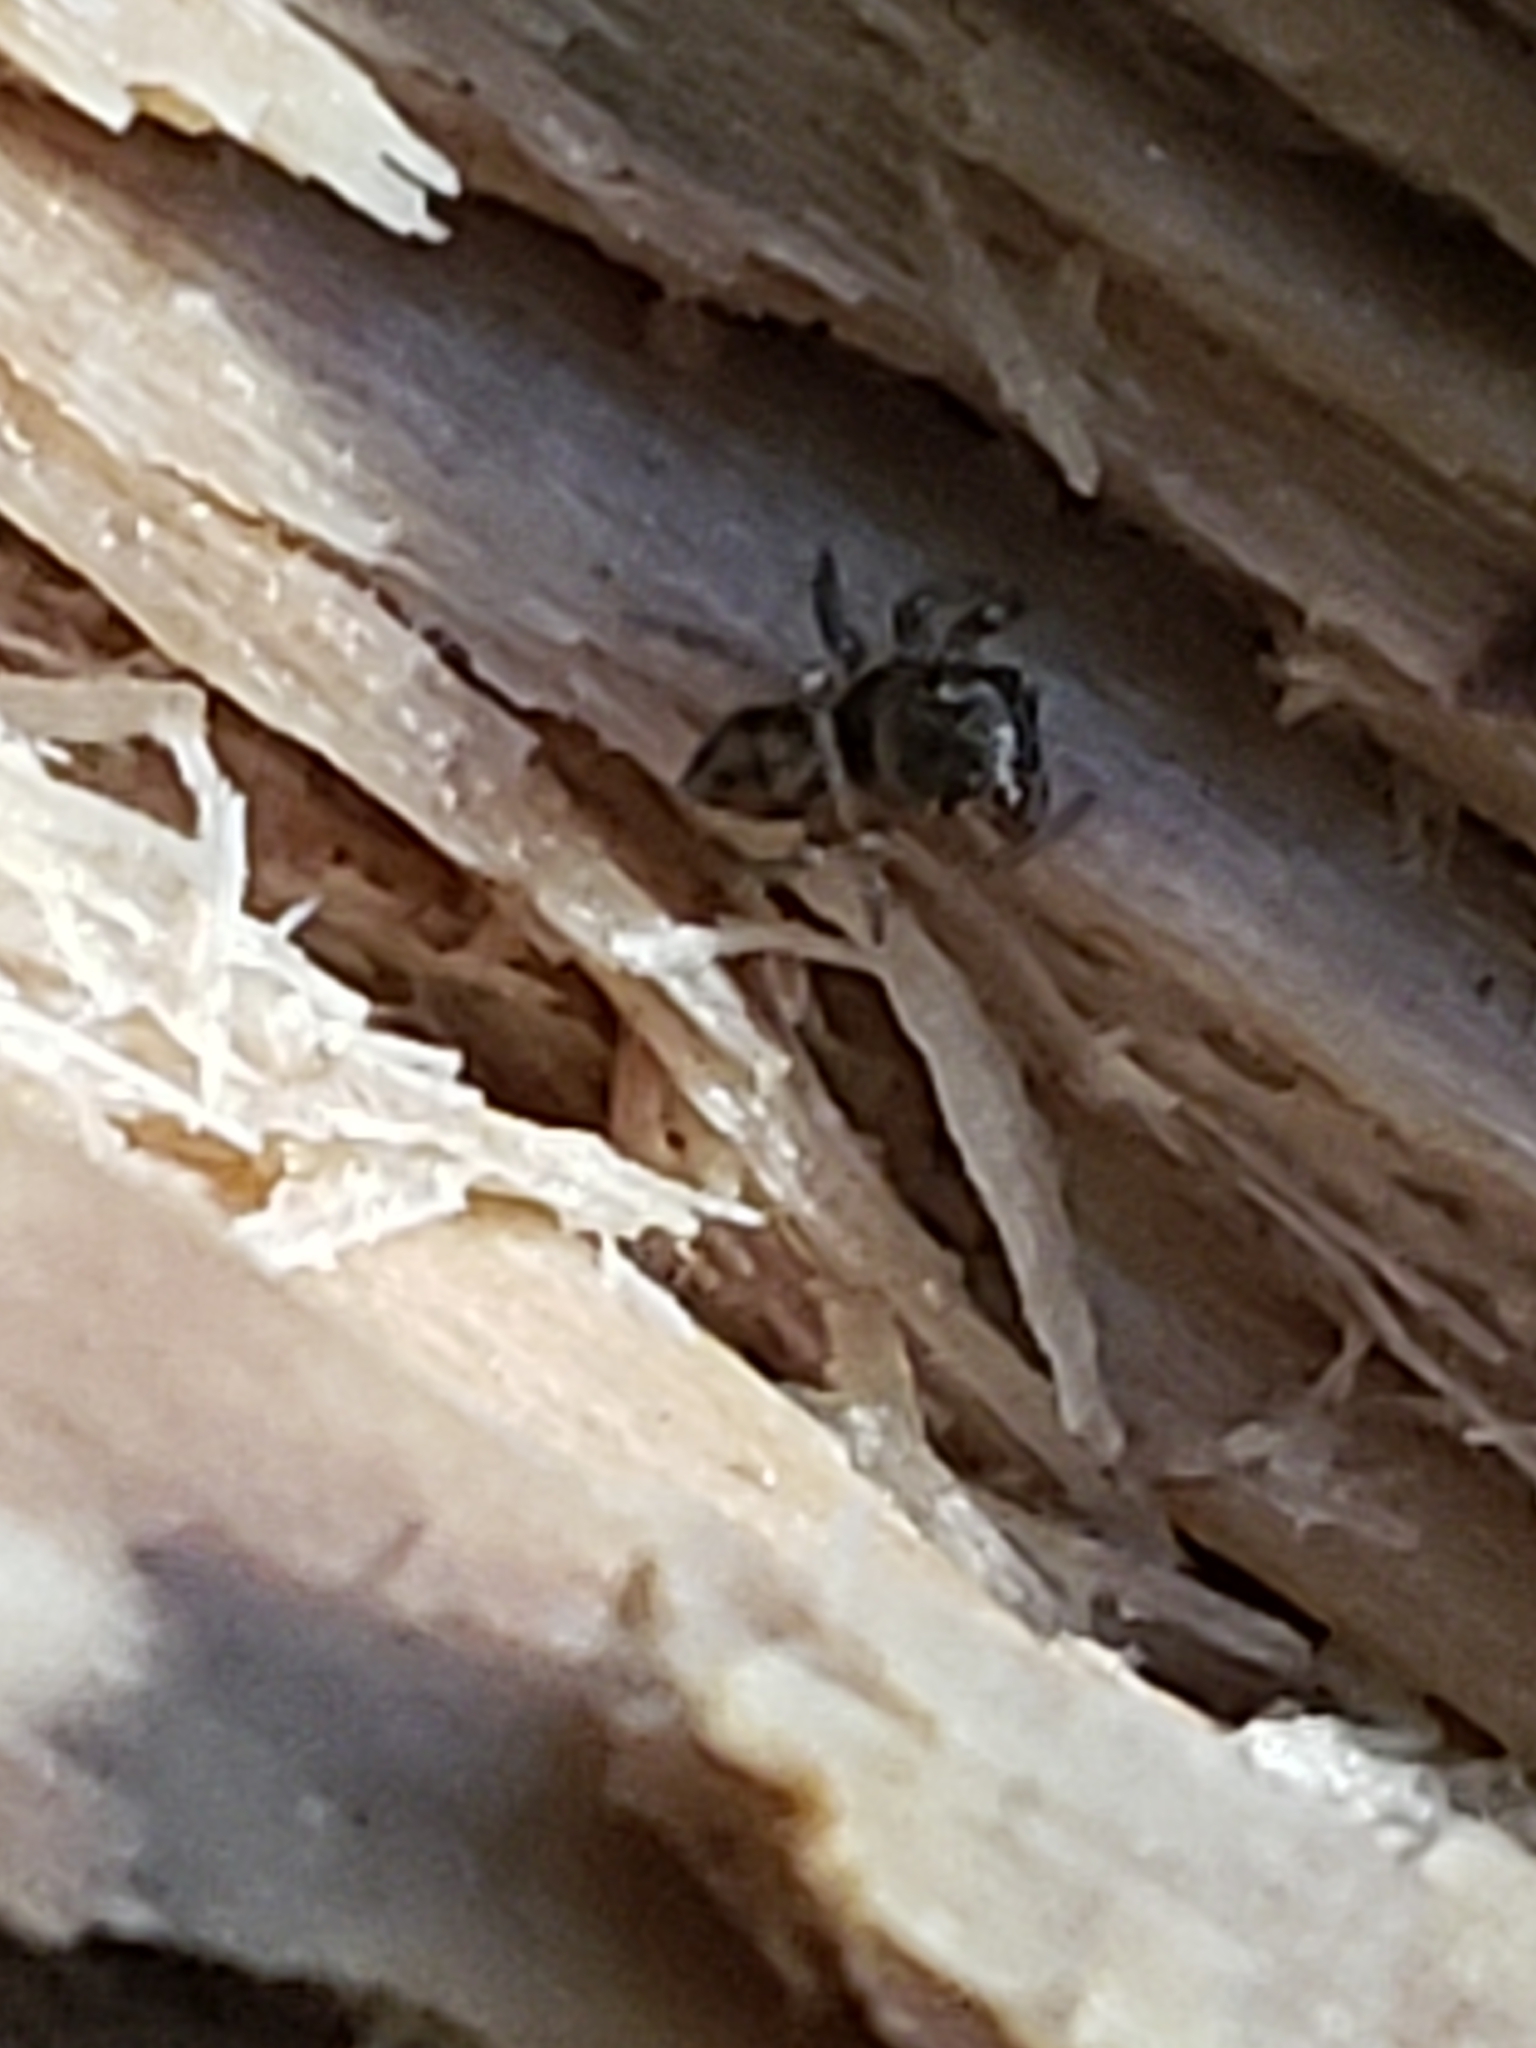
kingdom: Animalia
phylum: Arthropoda
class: Arachnida
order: Araneae
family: Salticidae
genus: Chinattus
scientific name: Chinattus parvulus
